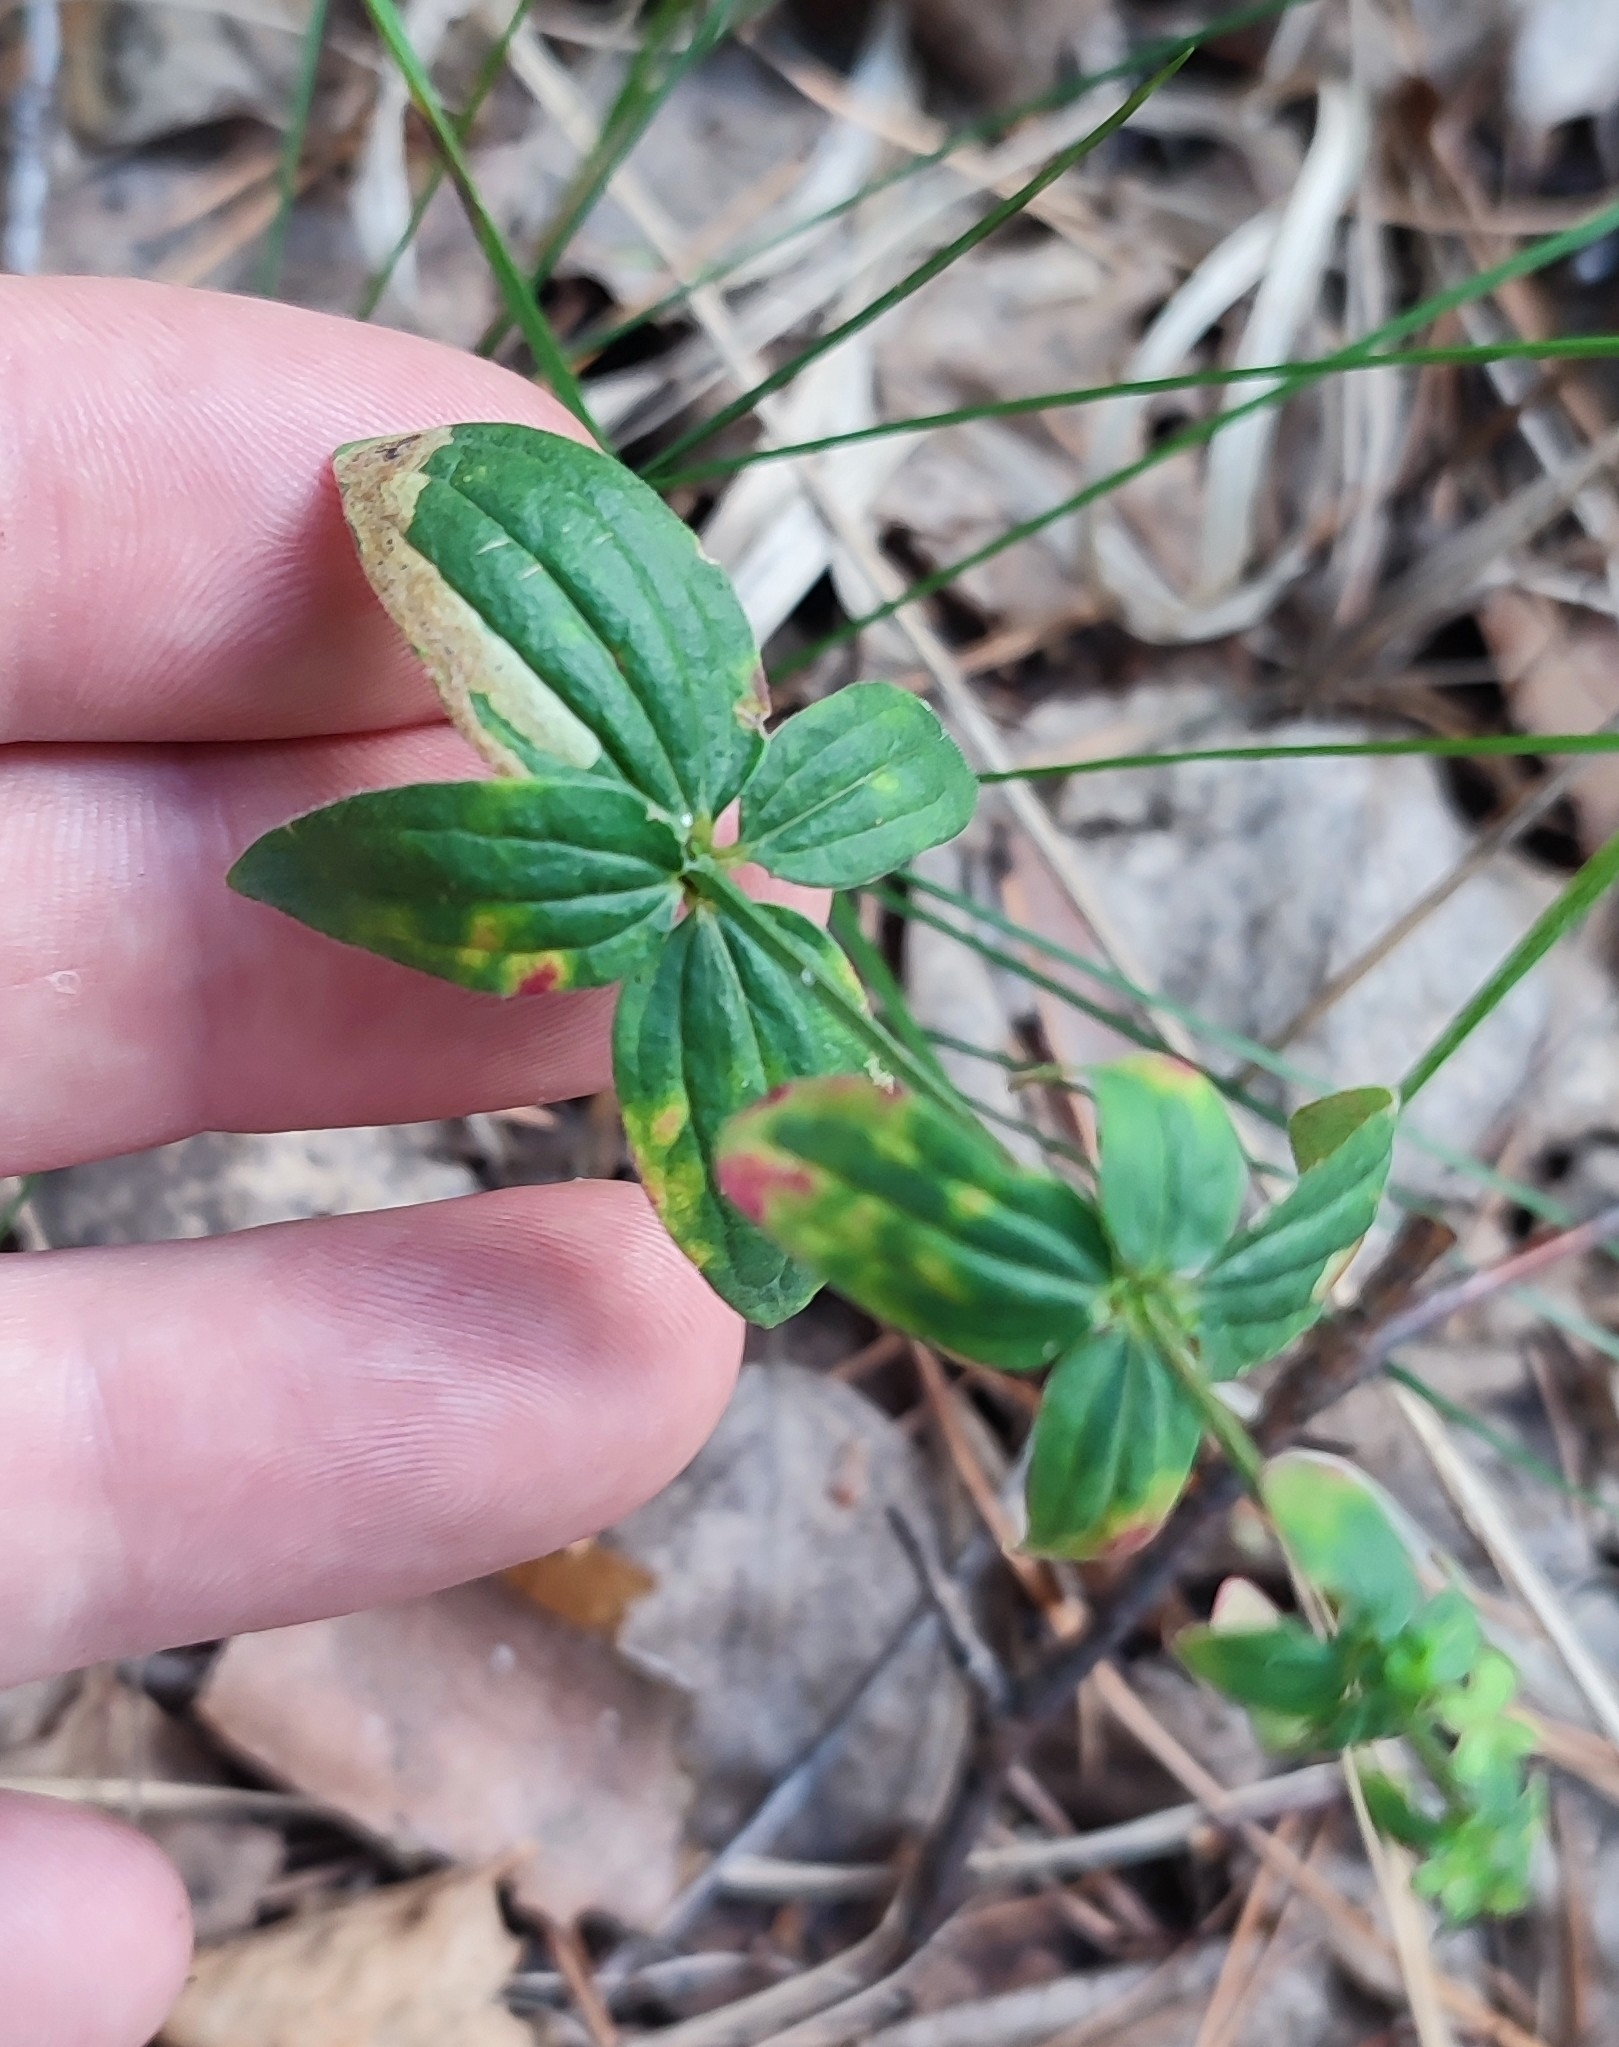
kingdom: Plantae
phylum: Tracheophyta
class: Magnoliopsida
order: Gentianales
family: Rubiaceae
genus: Galium
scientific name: Galium pseudoboreale
